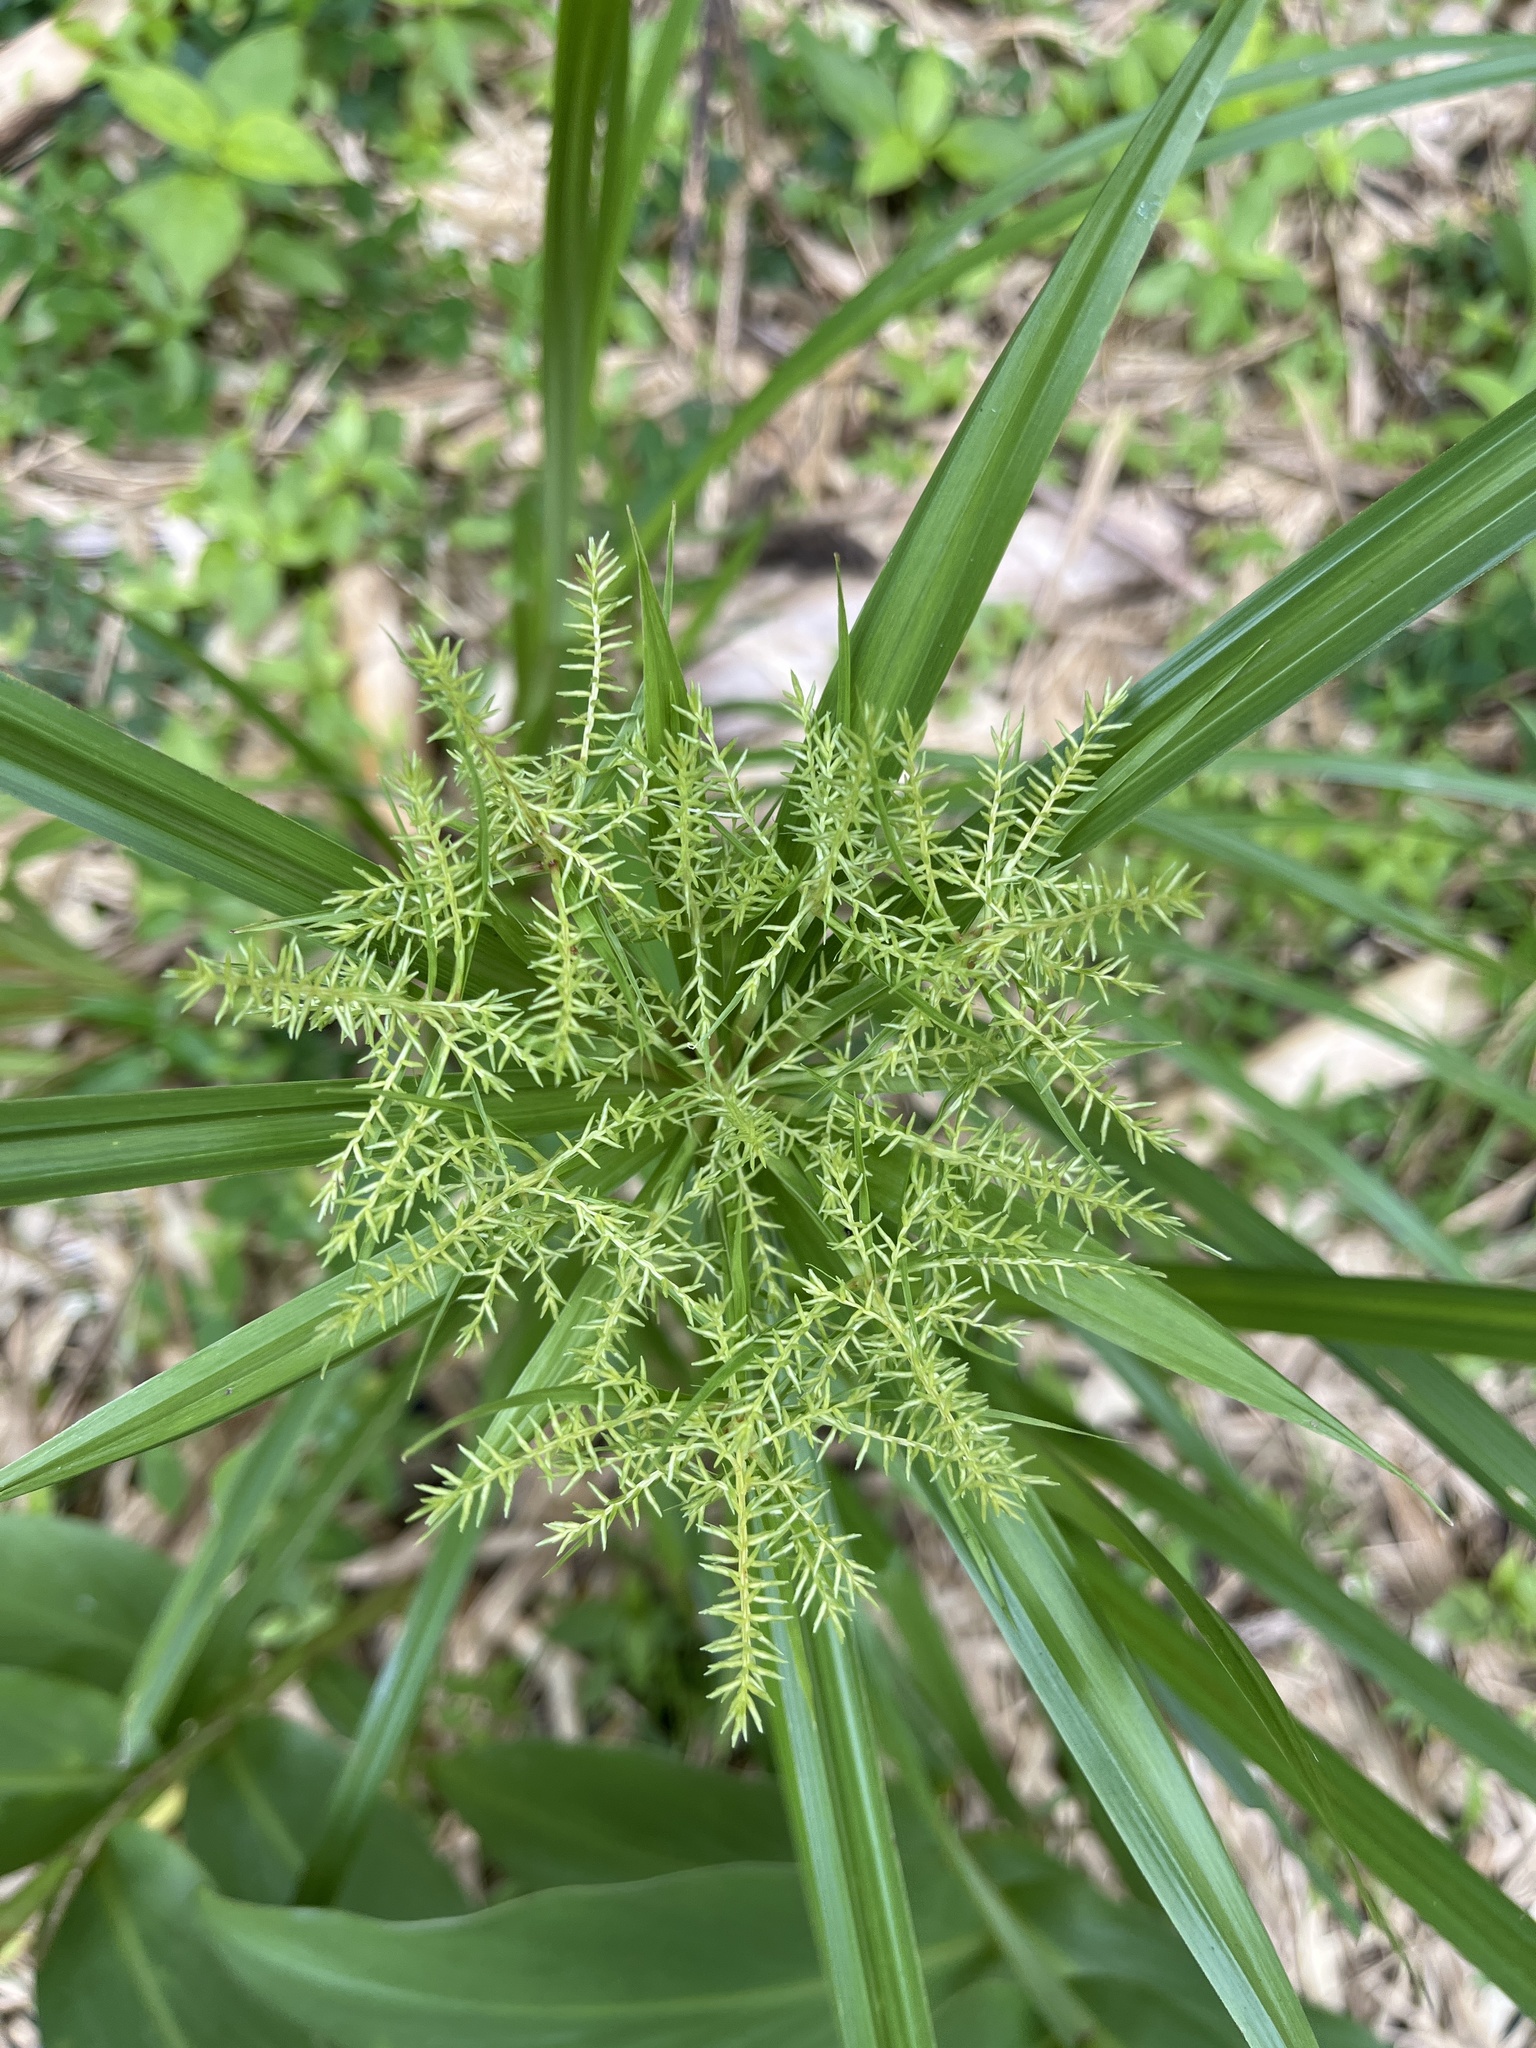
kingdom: Plantae
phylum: Tracheophyta
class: Liliopsida
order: Poales
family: Cyperaceae
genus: Cyperus
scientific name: Cyperus odoratus
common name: Fragrant flatsedge
